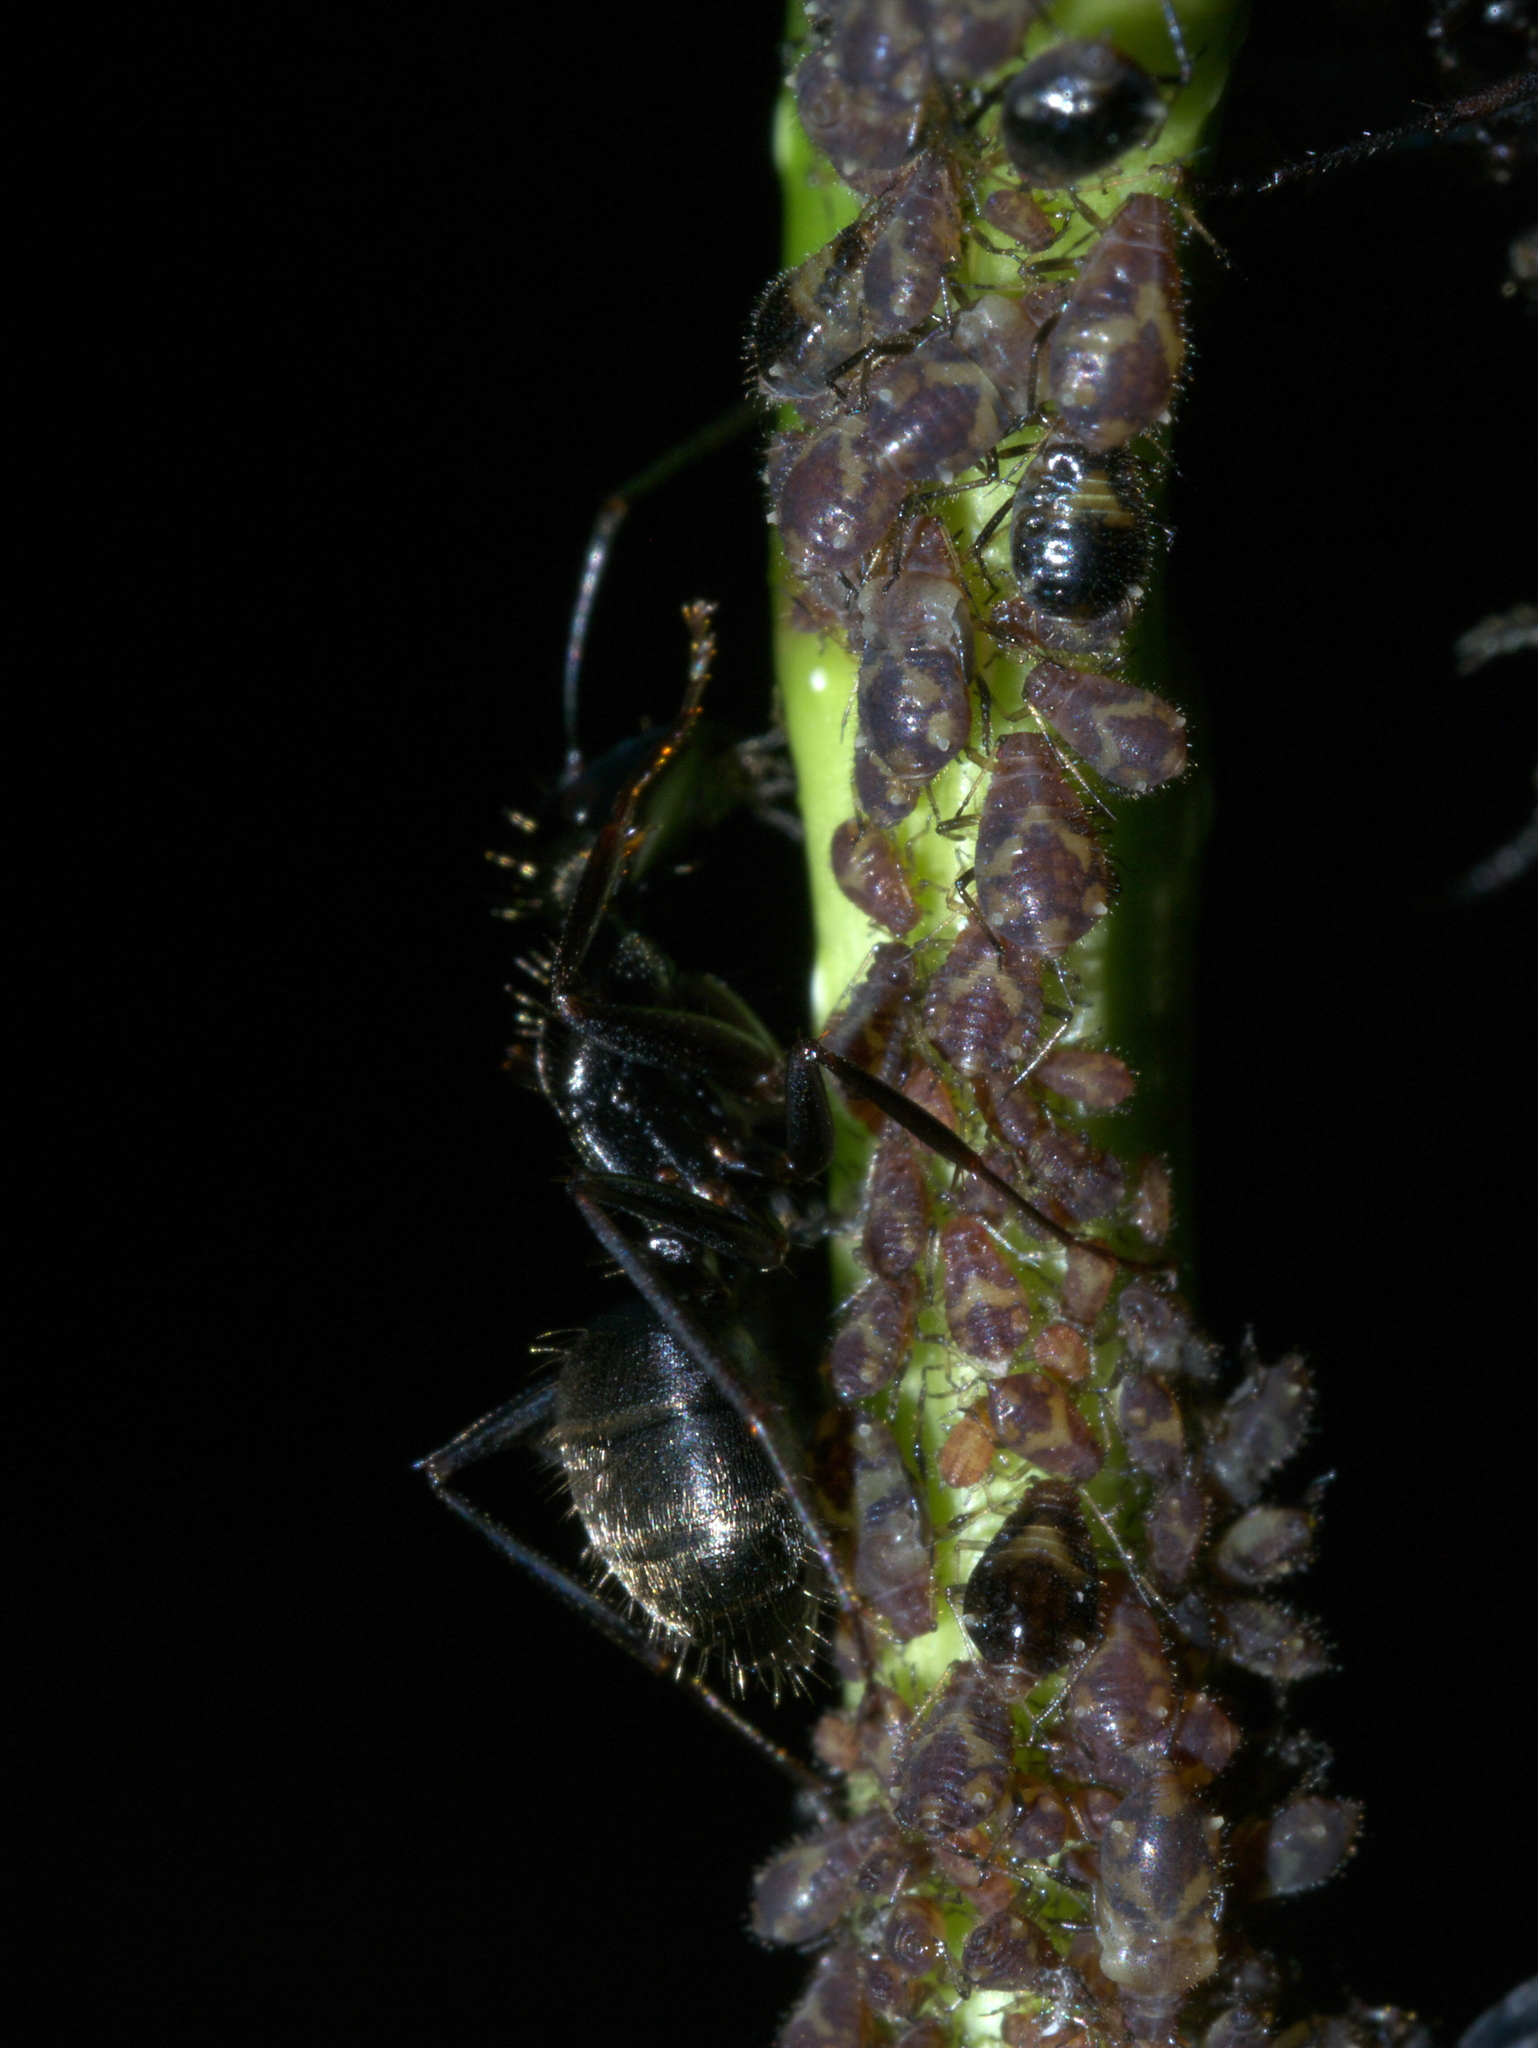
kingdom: Animalia
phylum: Arthropoda
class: Insecta
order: Hymenoptera
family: Formicidae
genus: Camponotus
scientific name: Camponotus pennsylvanicus
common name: Black carpenter ant
